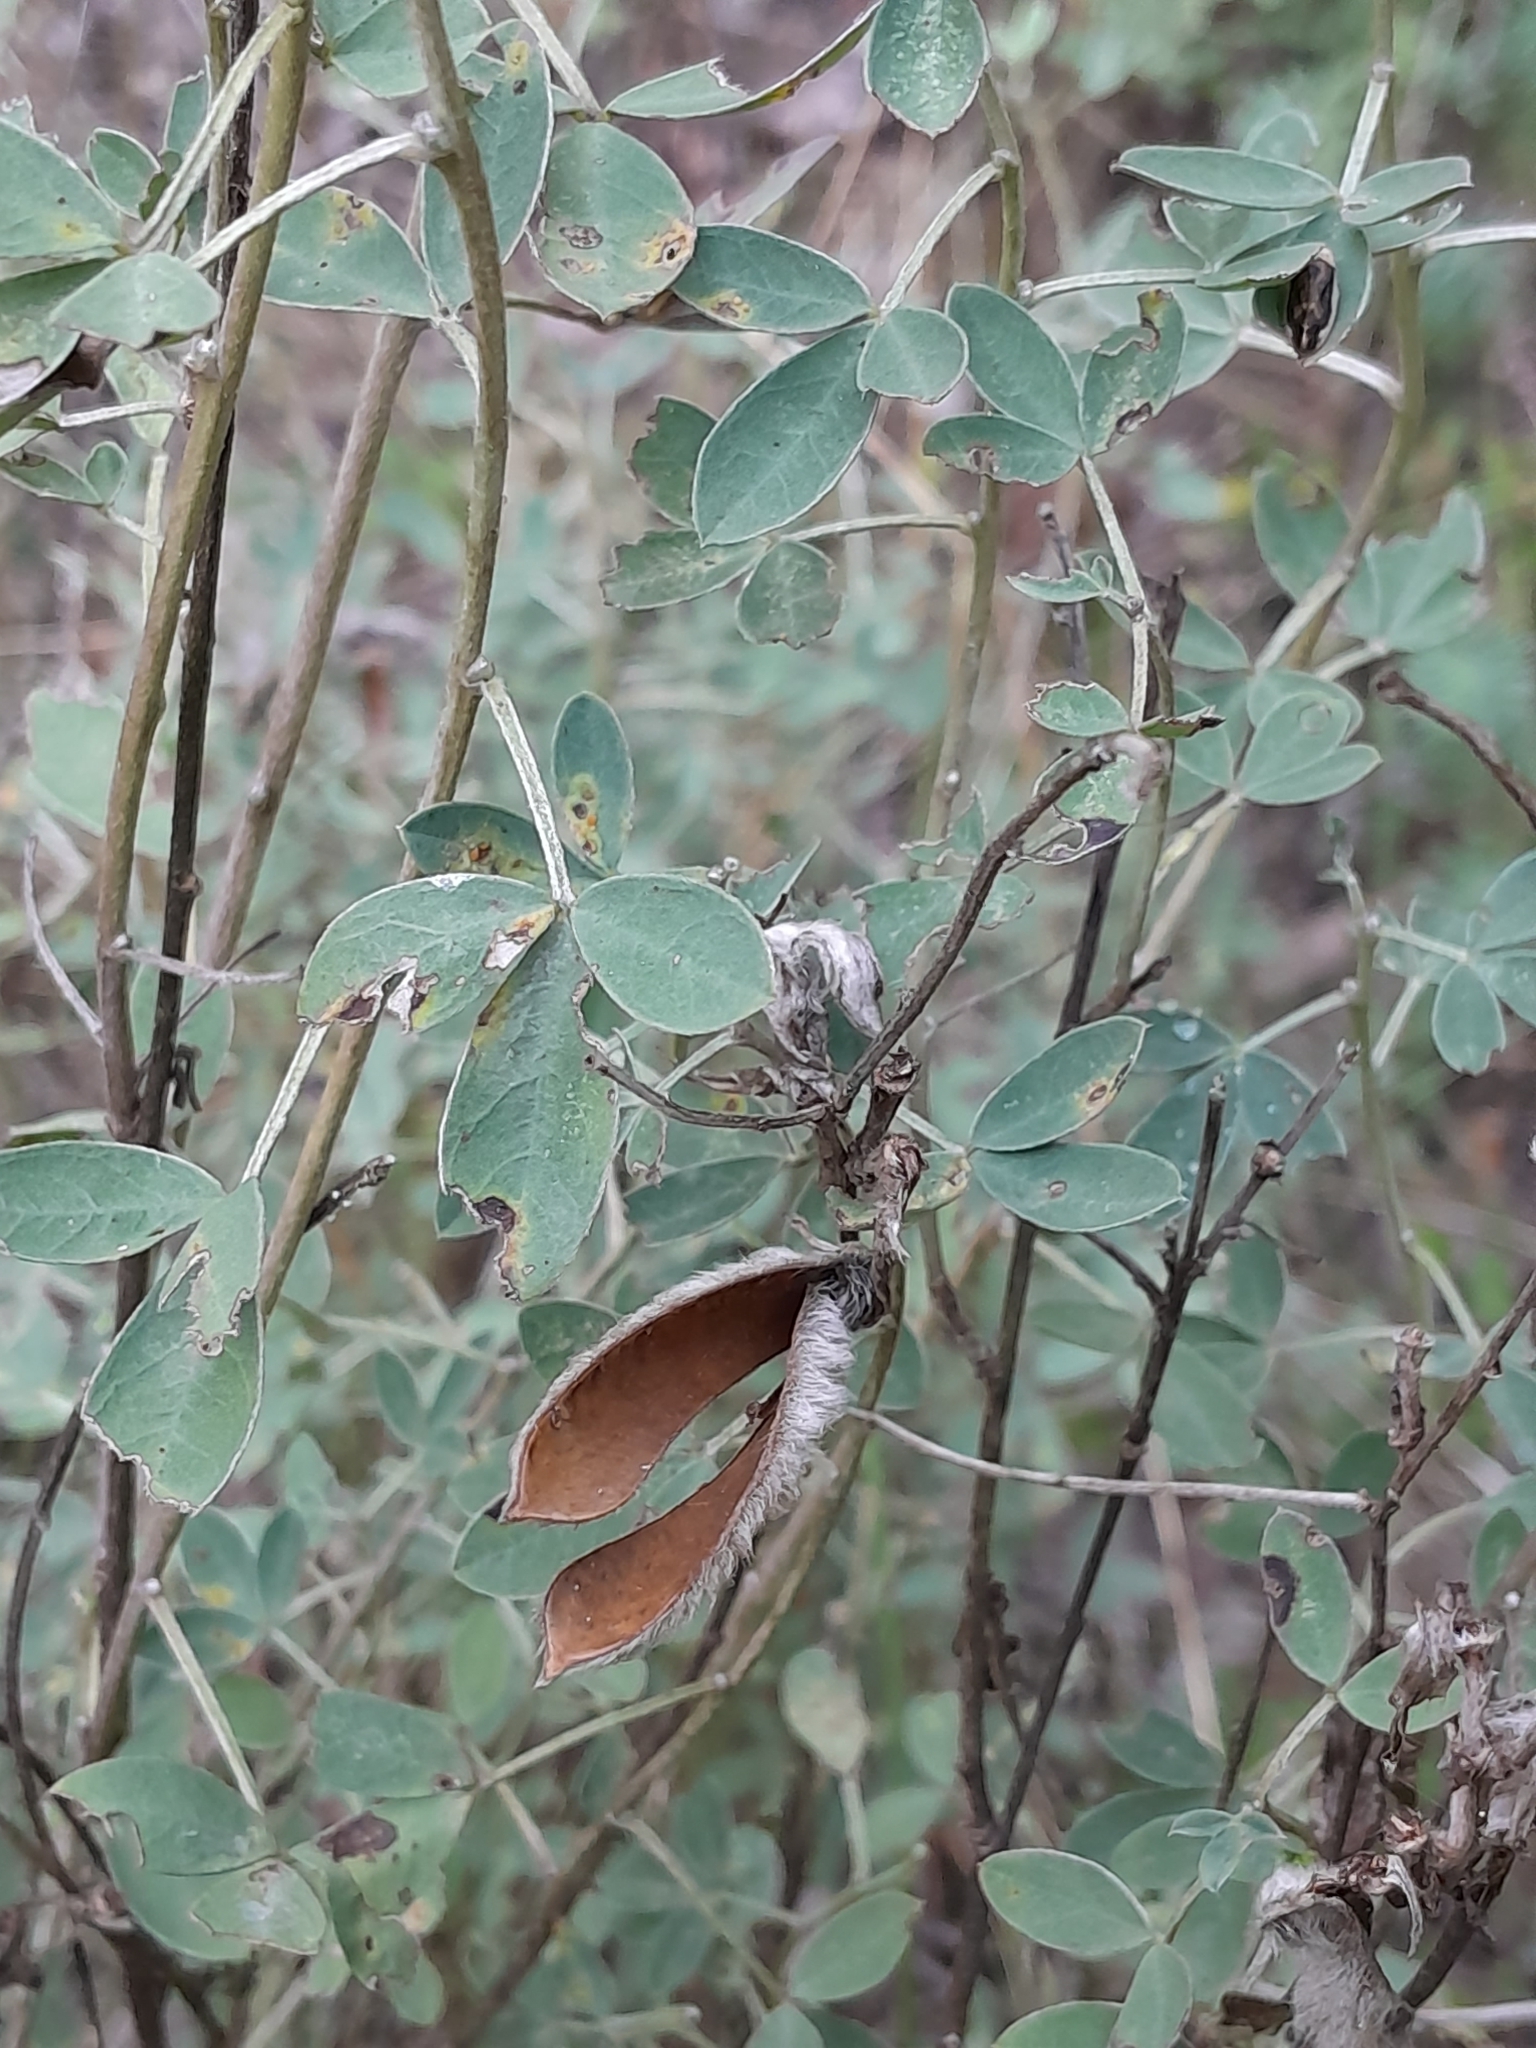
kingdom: Plantae
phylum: Tracheophyta
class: Magnoliopsida
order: Fabales
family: Fabaceae
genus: Cytisus
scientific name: Cytisus nigricans
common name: Black broom
